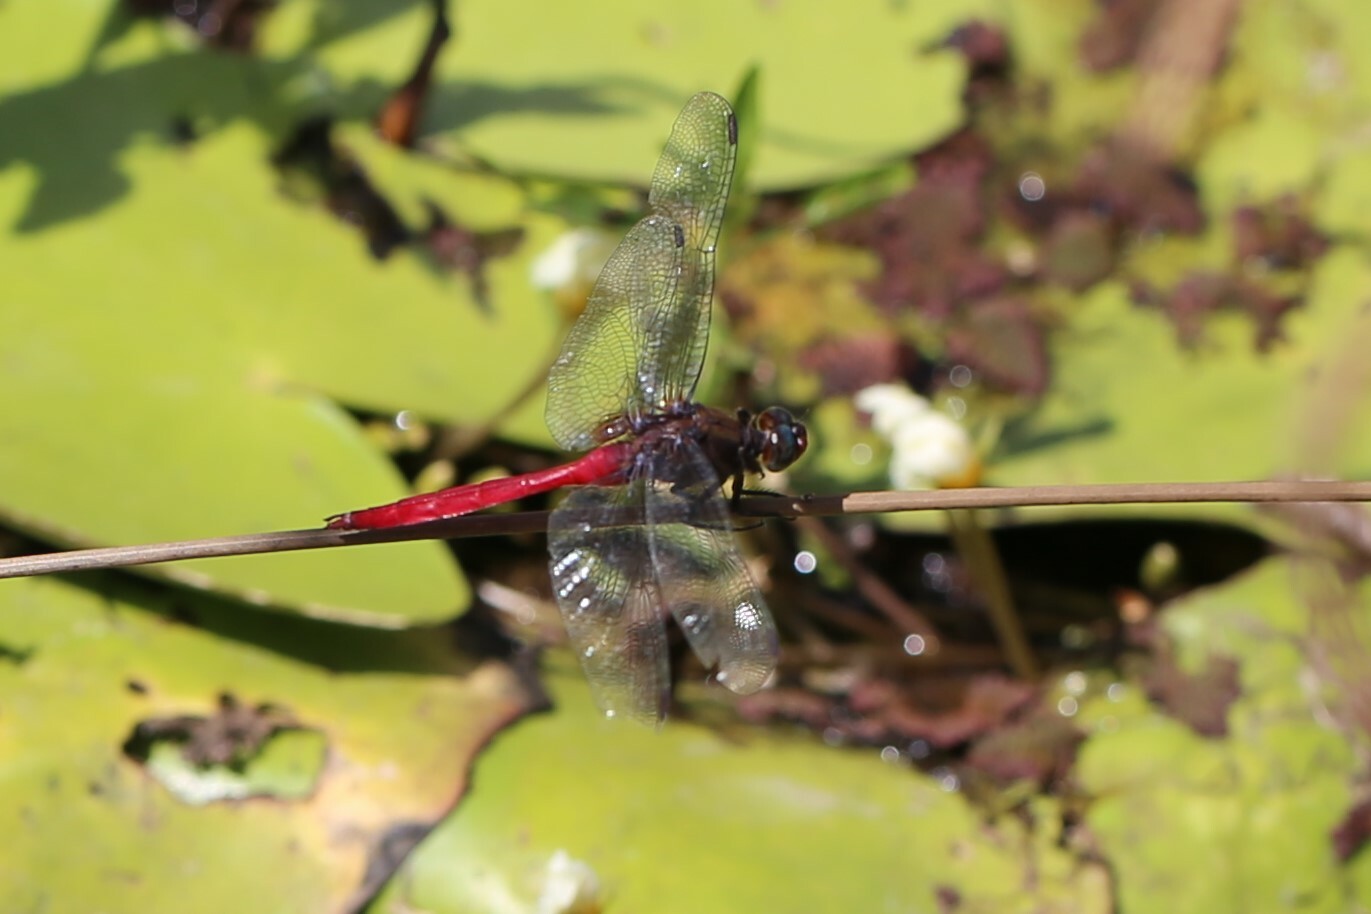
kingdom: Animalia
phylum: Arthropoda
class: Insecta
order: Odonata
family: Libellulidae
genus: Orthetrum
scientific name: Orthetrum villosovittatum
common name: Firery skimmer
